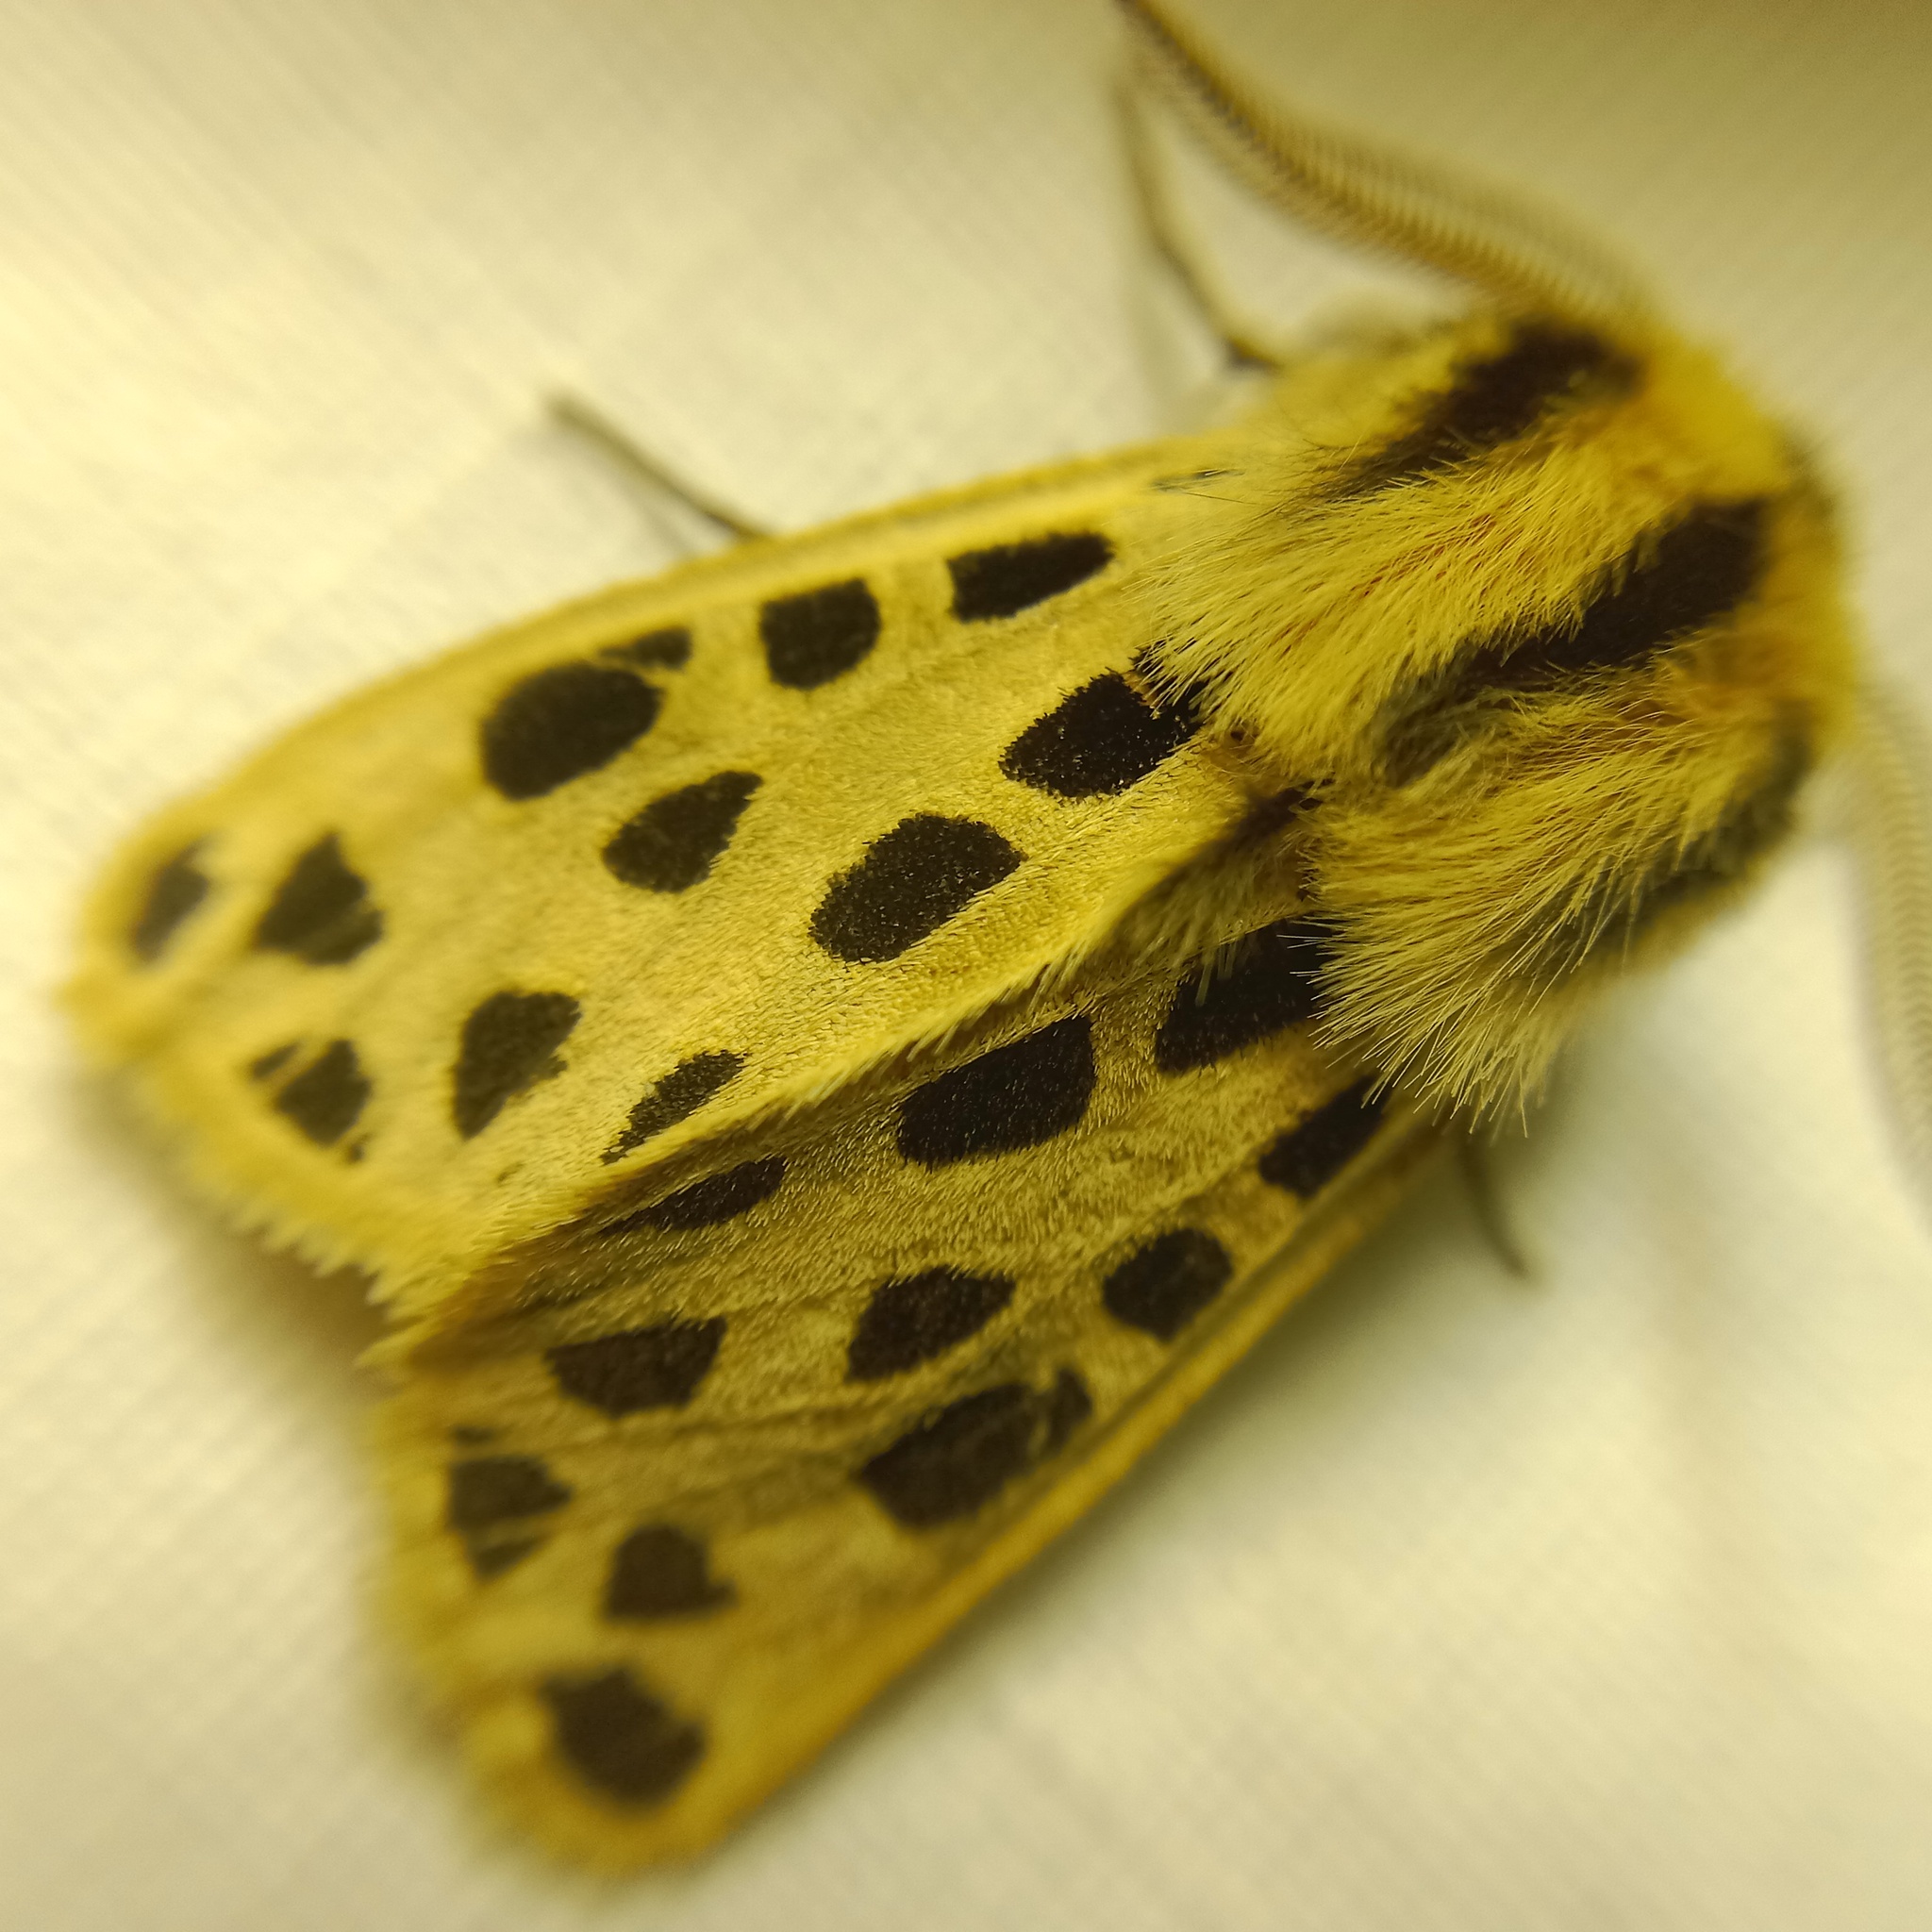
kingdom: Animalia
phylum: Arthropoda
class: Insecta
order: Lepidoptera
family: Erebidae
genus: Chelis
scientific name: Chelis maculosa
